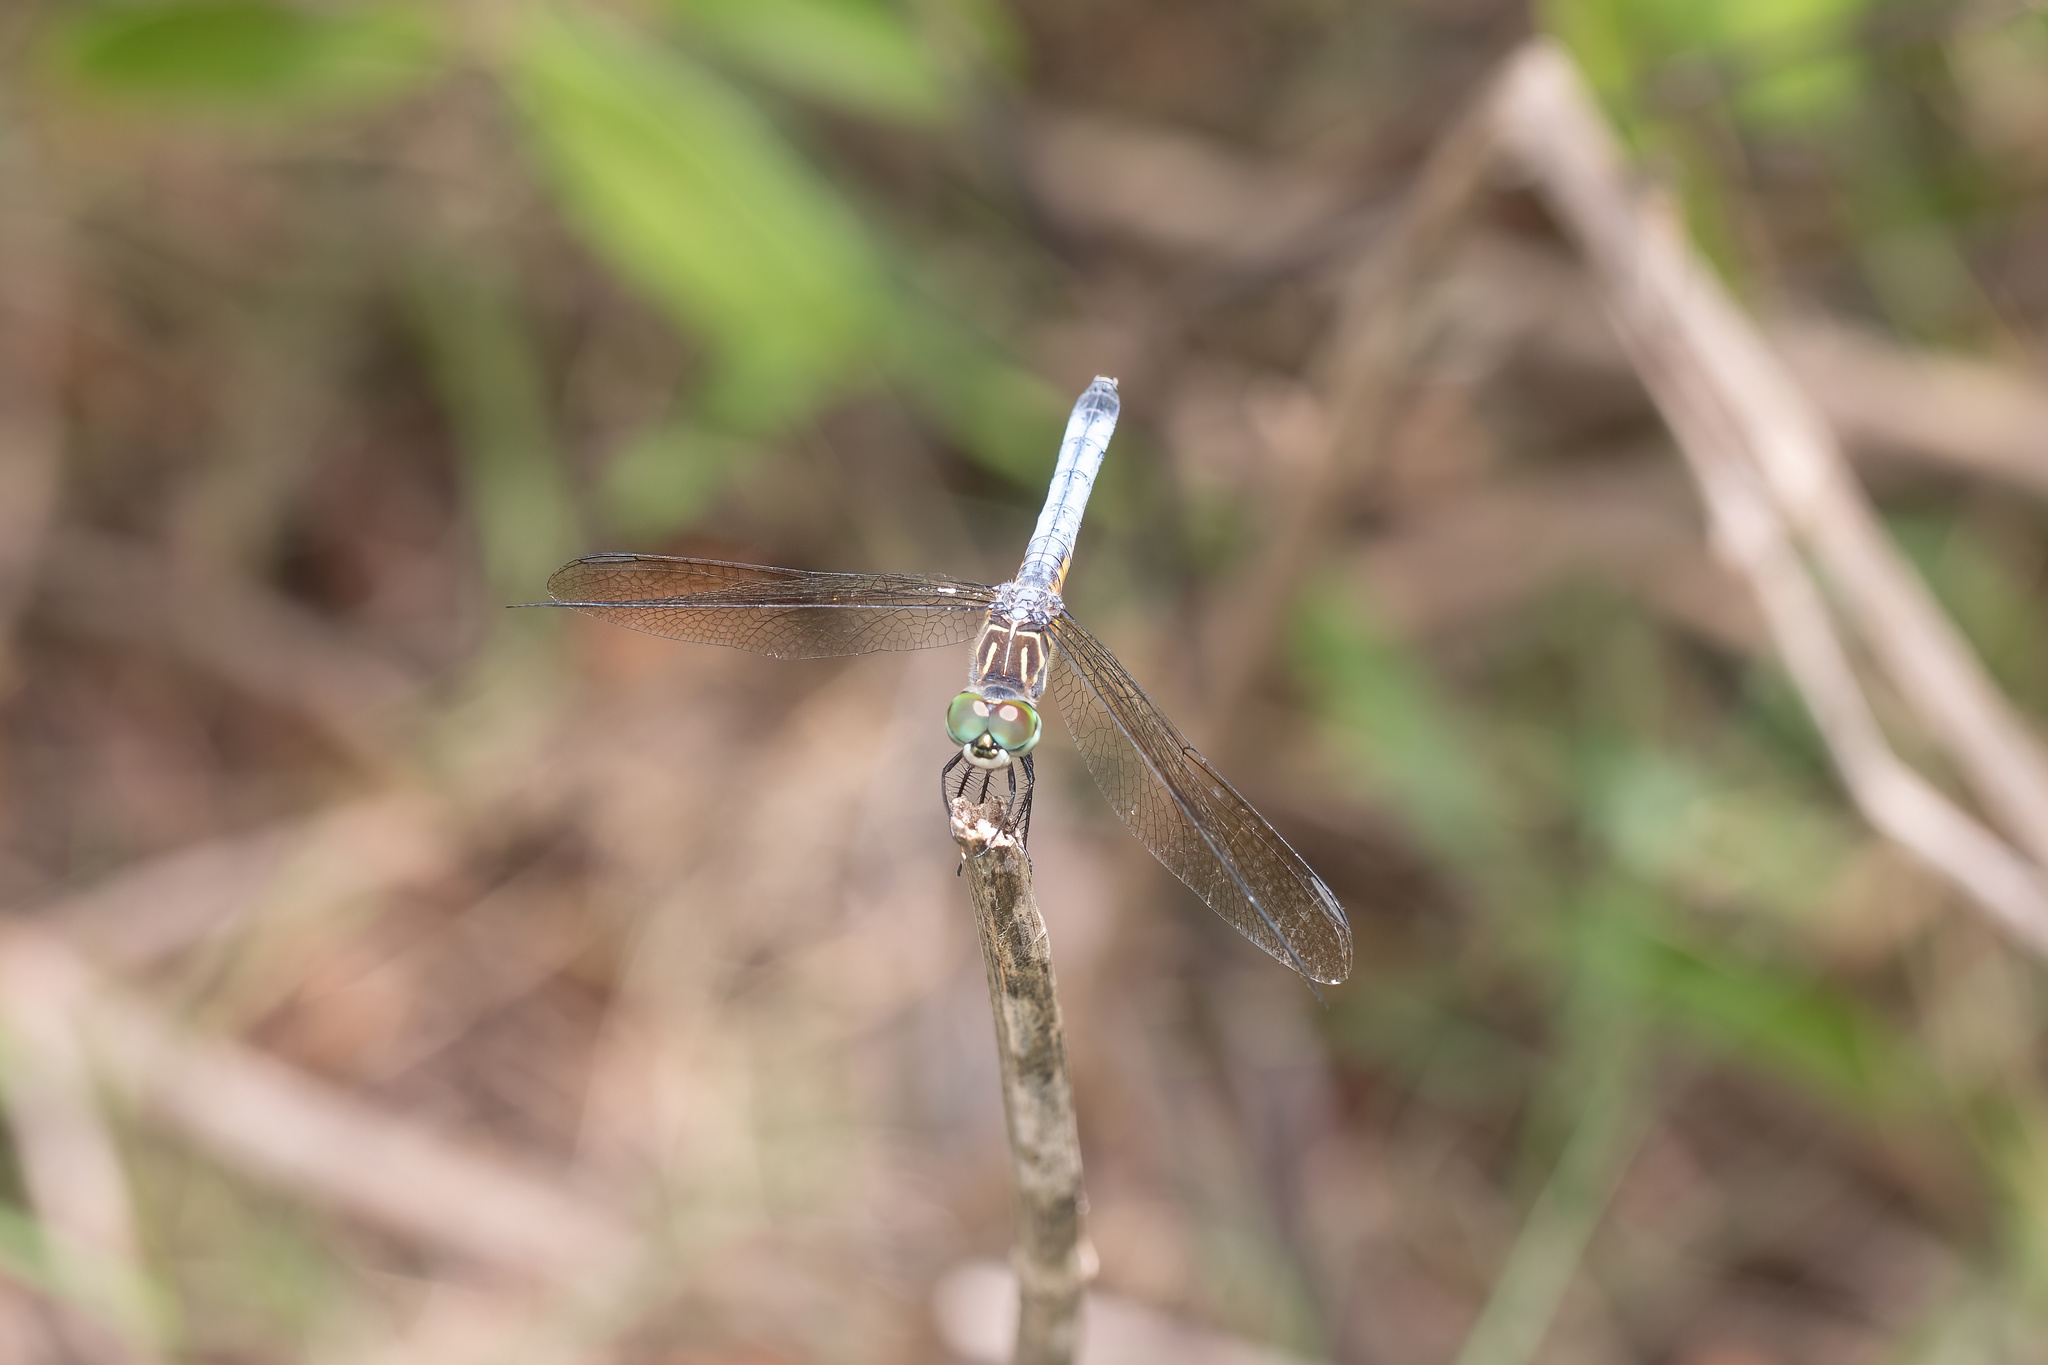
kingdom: Animalia
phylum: Arthropoda
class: Insecta
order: Odonata
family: Libellulidae
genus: Pachydiplax
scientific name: Pachydiplax longipennis
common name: Blue dasher
